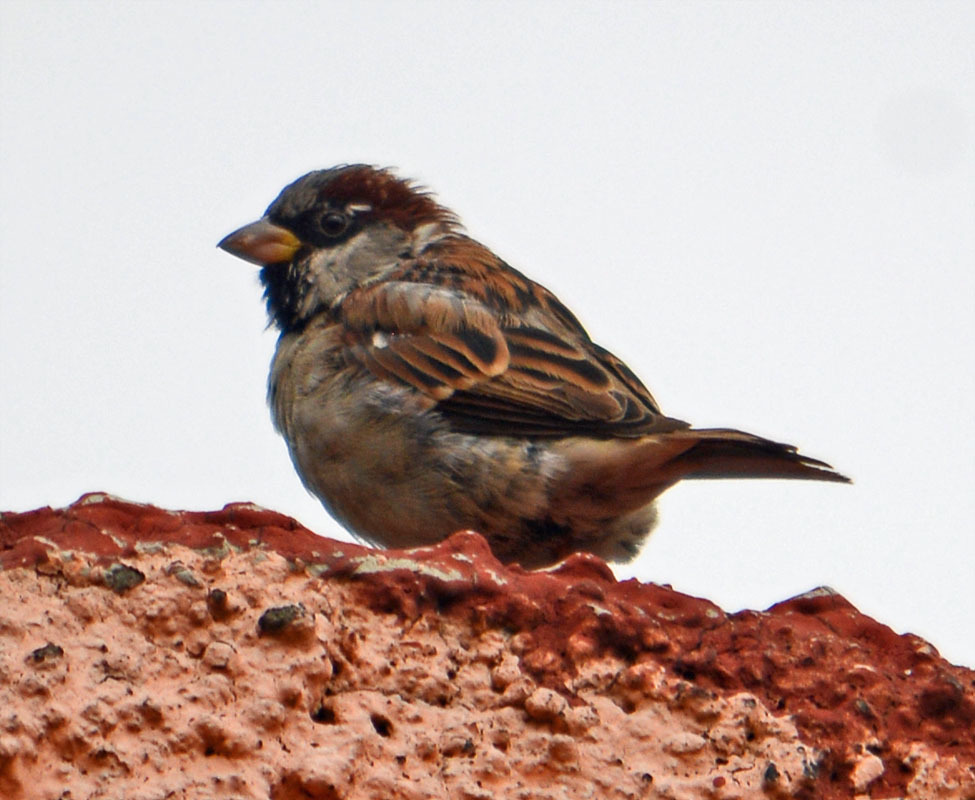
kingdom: Animalia
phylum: Chordata
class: Aves
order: Passeriformes
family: Passeridae
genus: Passer
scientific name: Passer domesticus
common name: House sparrow
